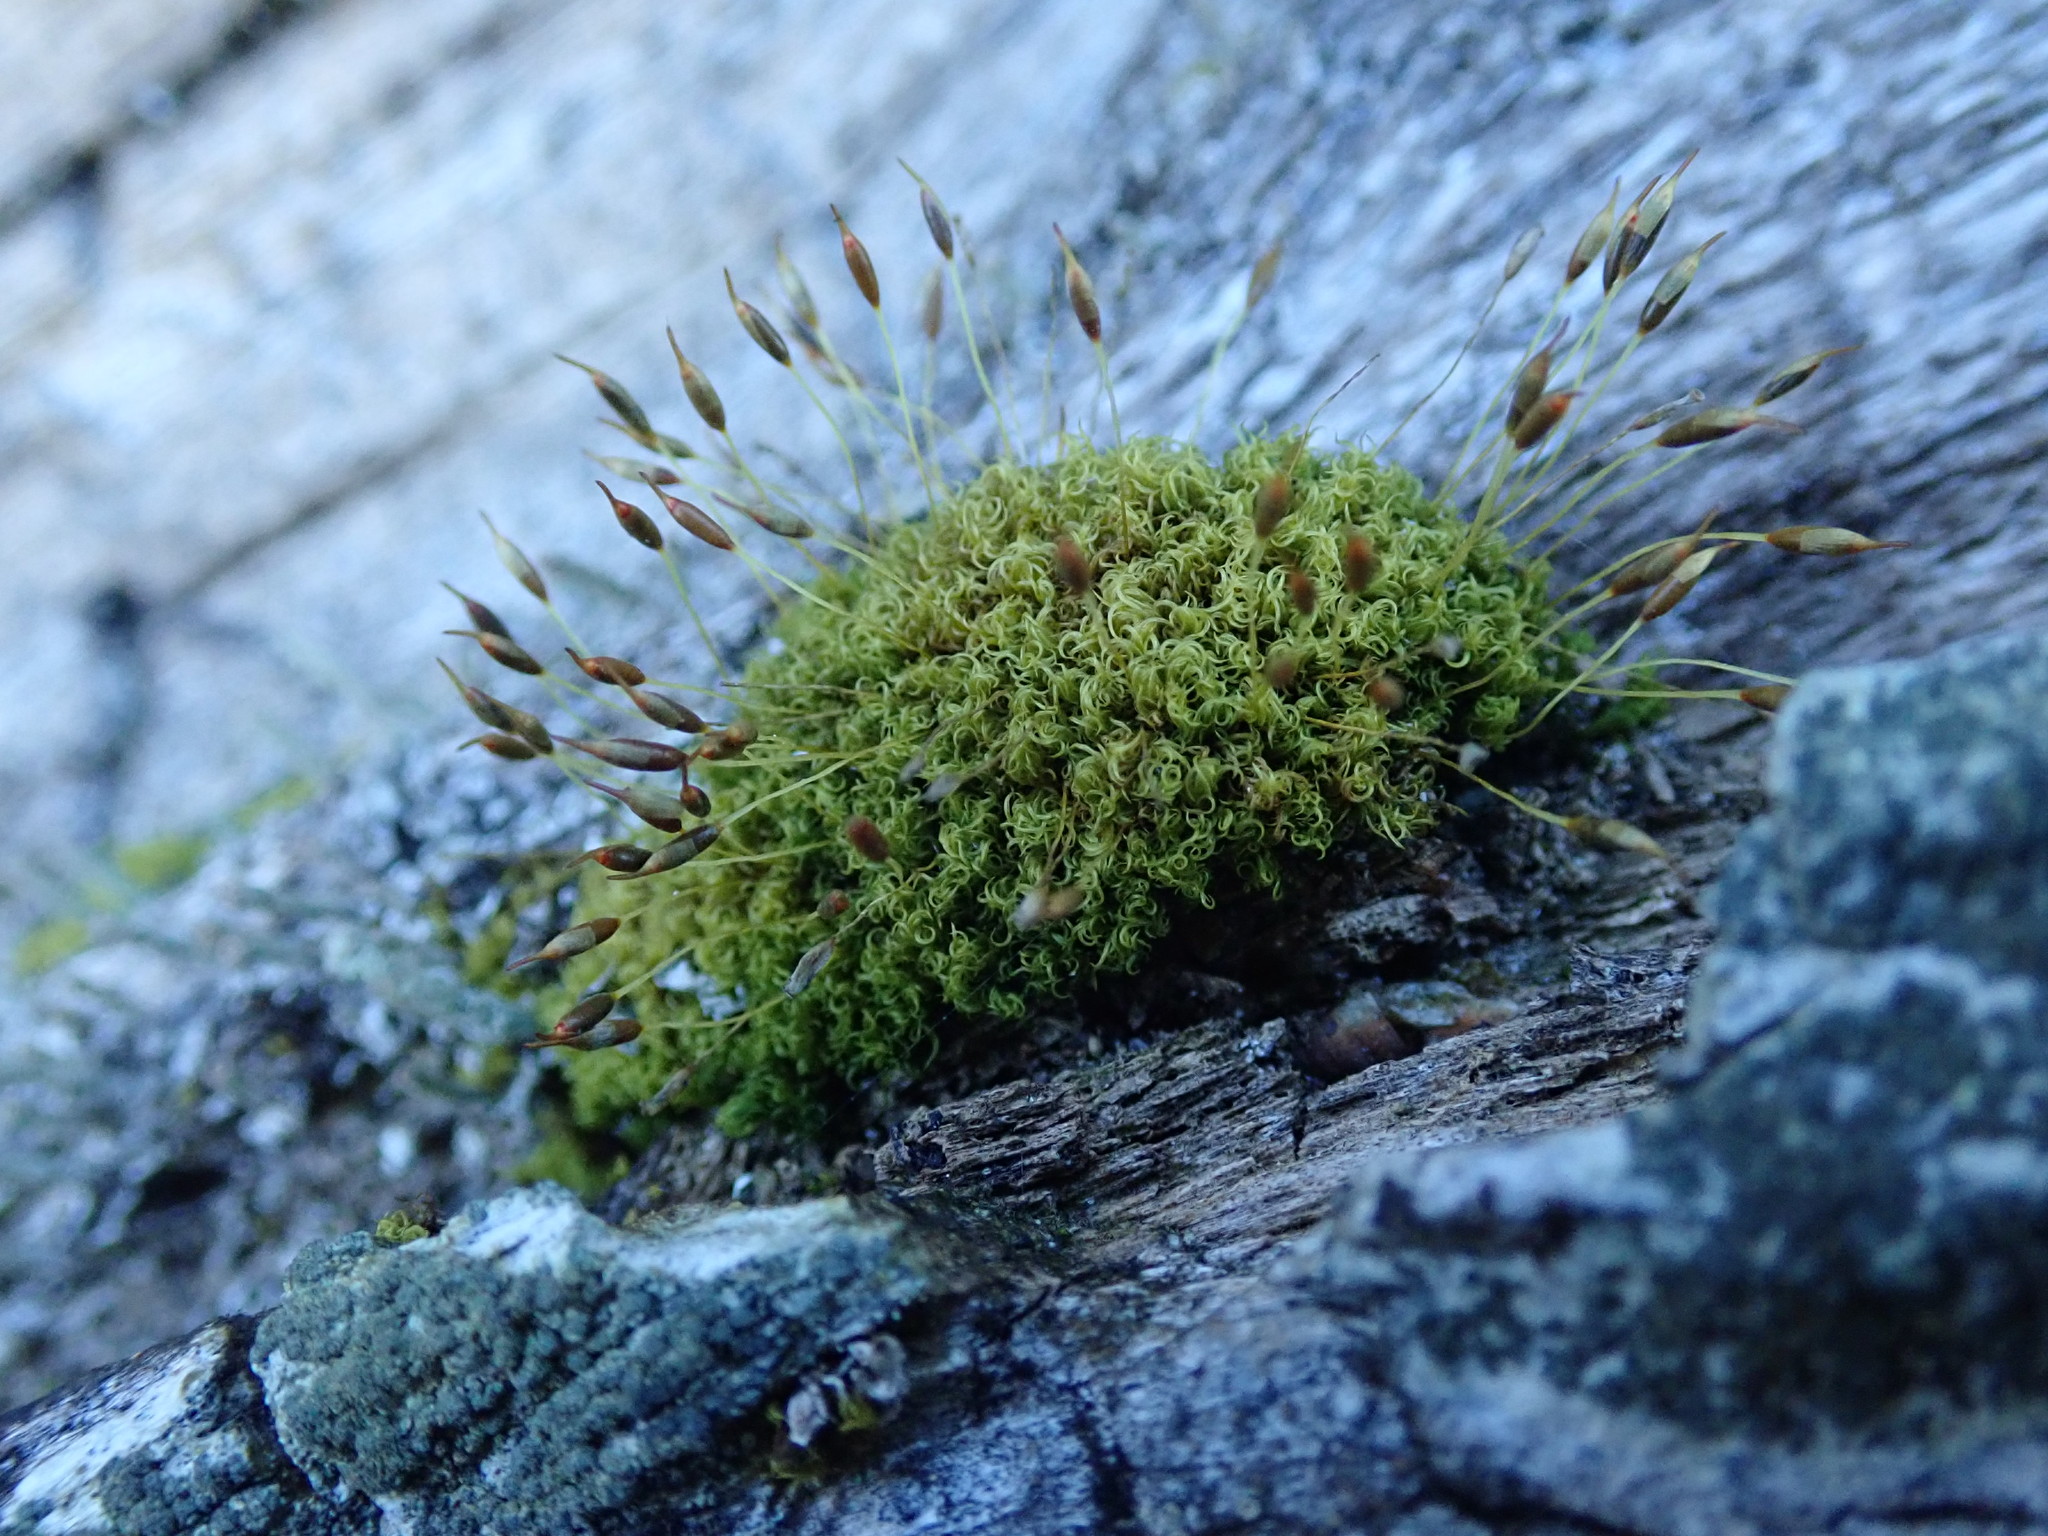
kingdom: Plantae
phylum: Bryophyta
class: Bryopsida
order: Dicranales
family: Rhabdoweisiaceae
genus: Dicranoweisia
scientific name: Dicranoweisia cirrata
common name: Common pincushion
